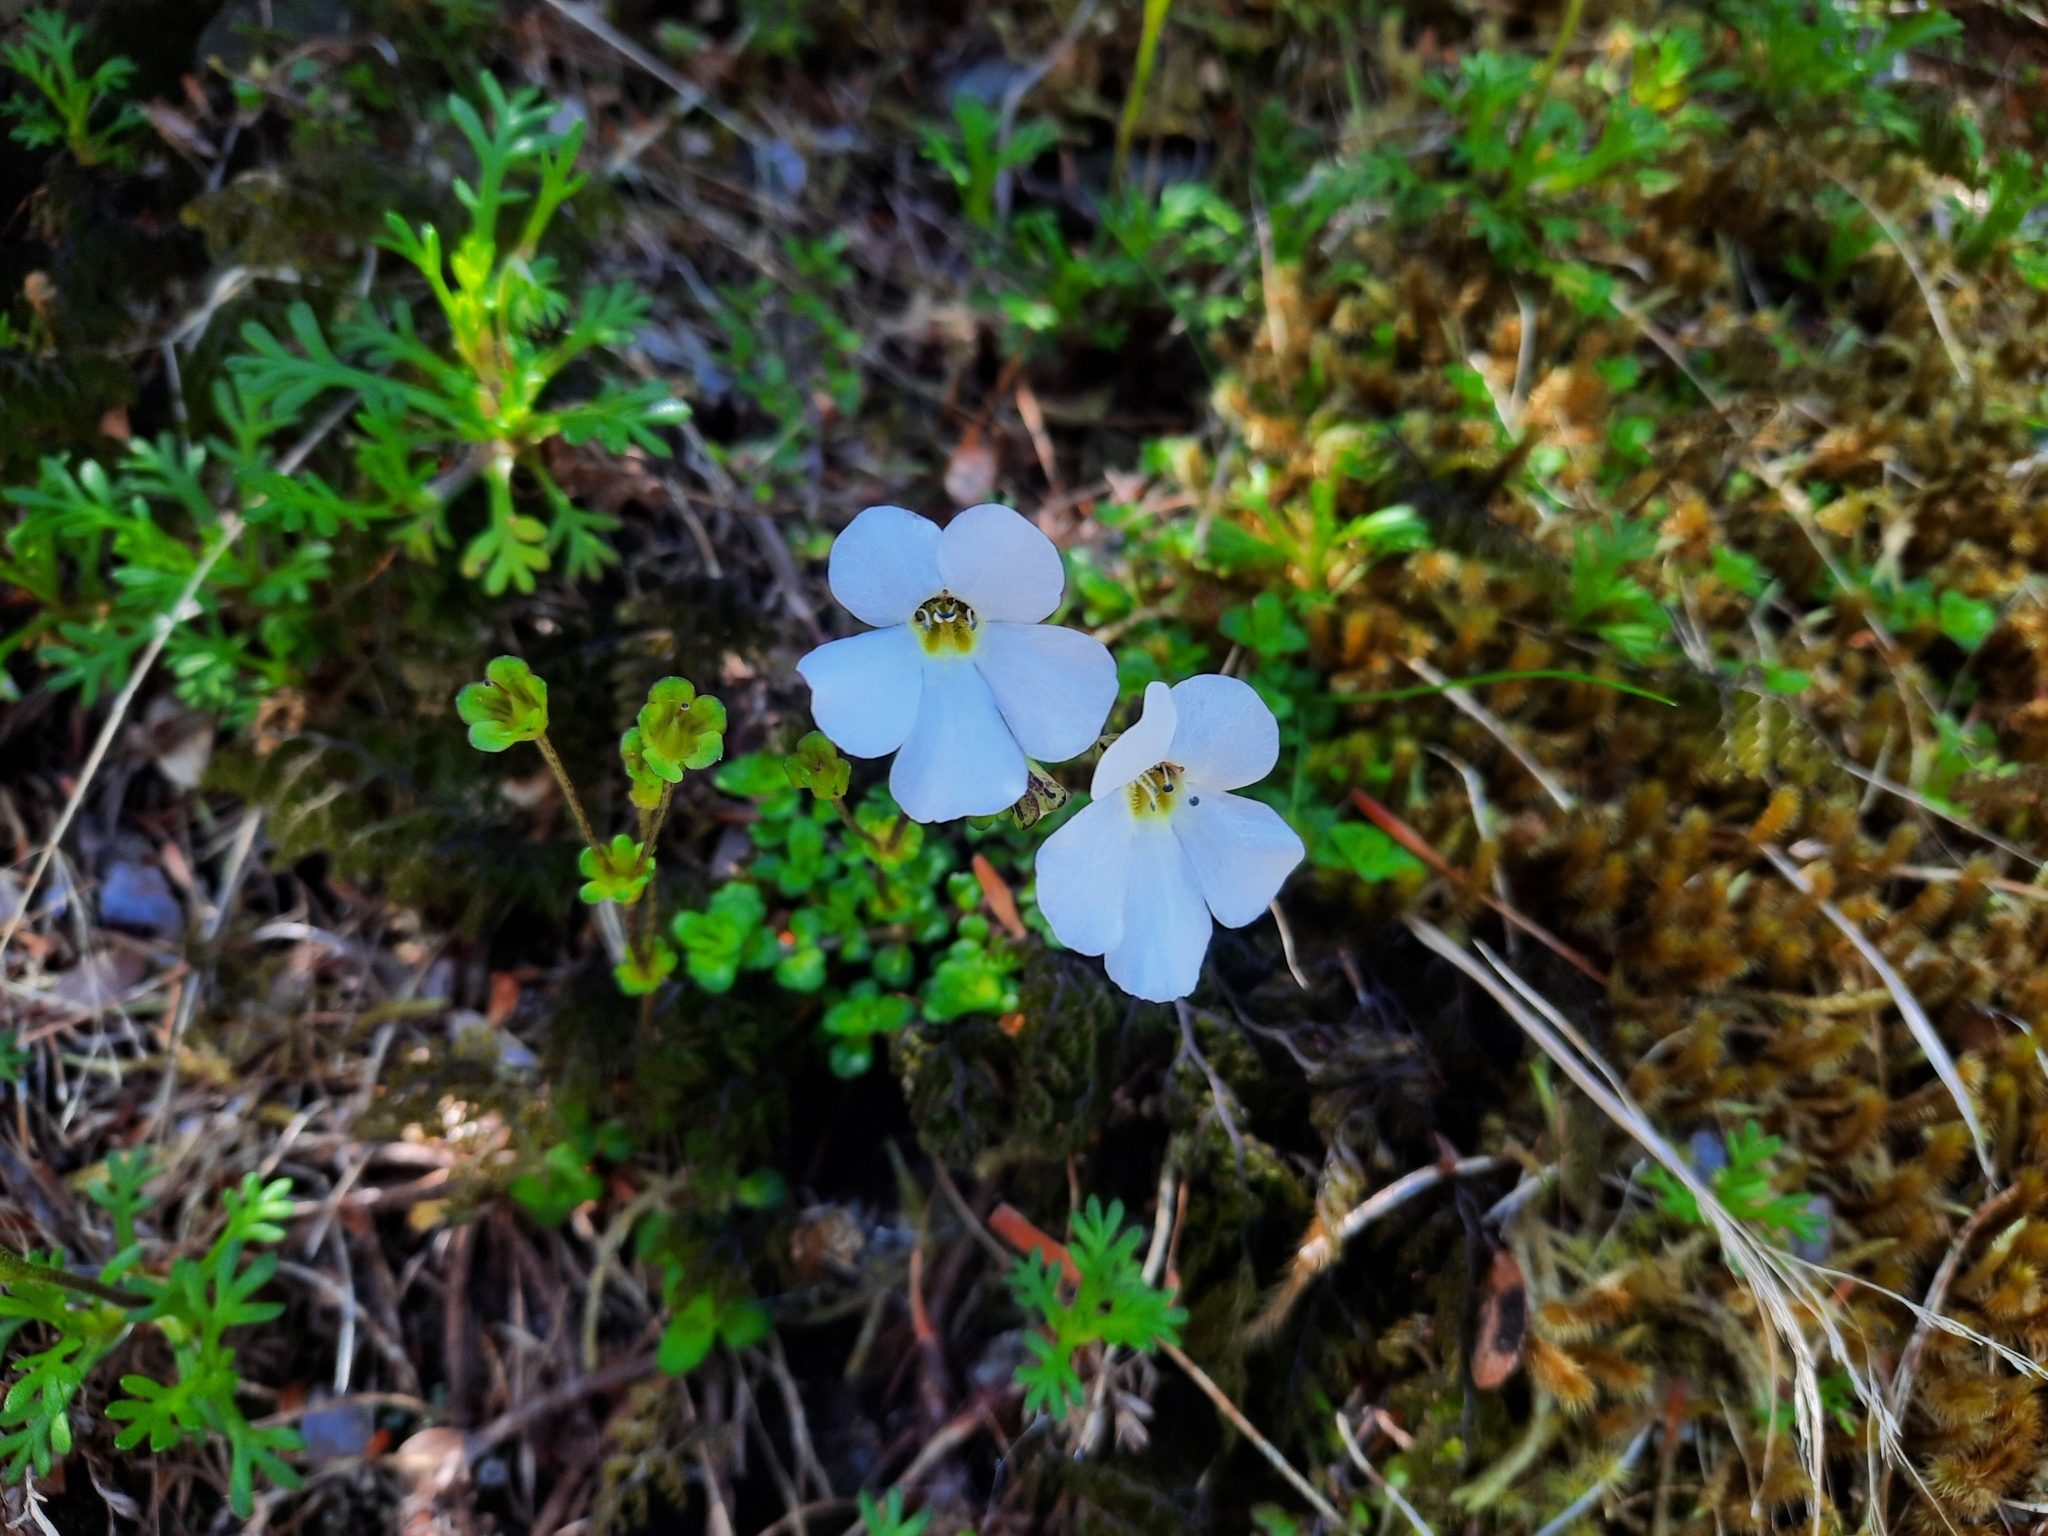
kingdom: Plantae
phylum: Tracheophyta
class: Magnoliopsida
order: Lamiales
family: Plantaginaceae
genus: Ourisia
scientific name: Ourisia caespitosa
